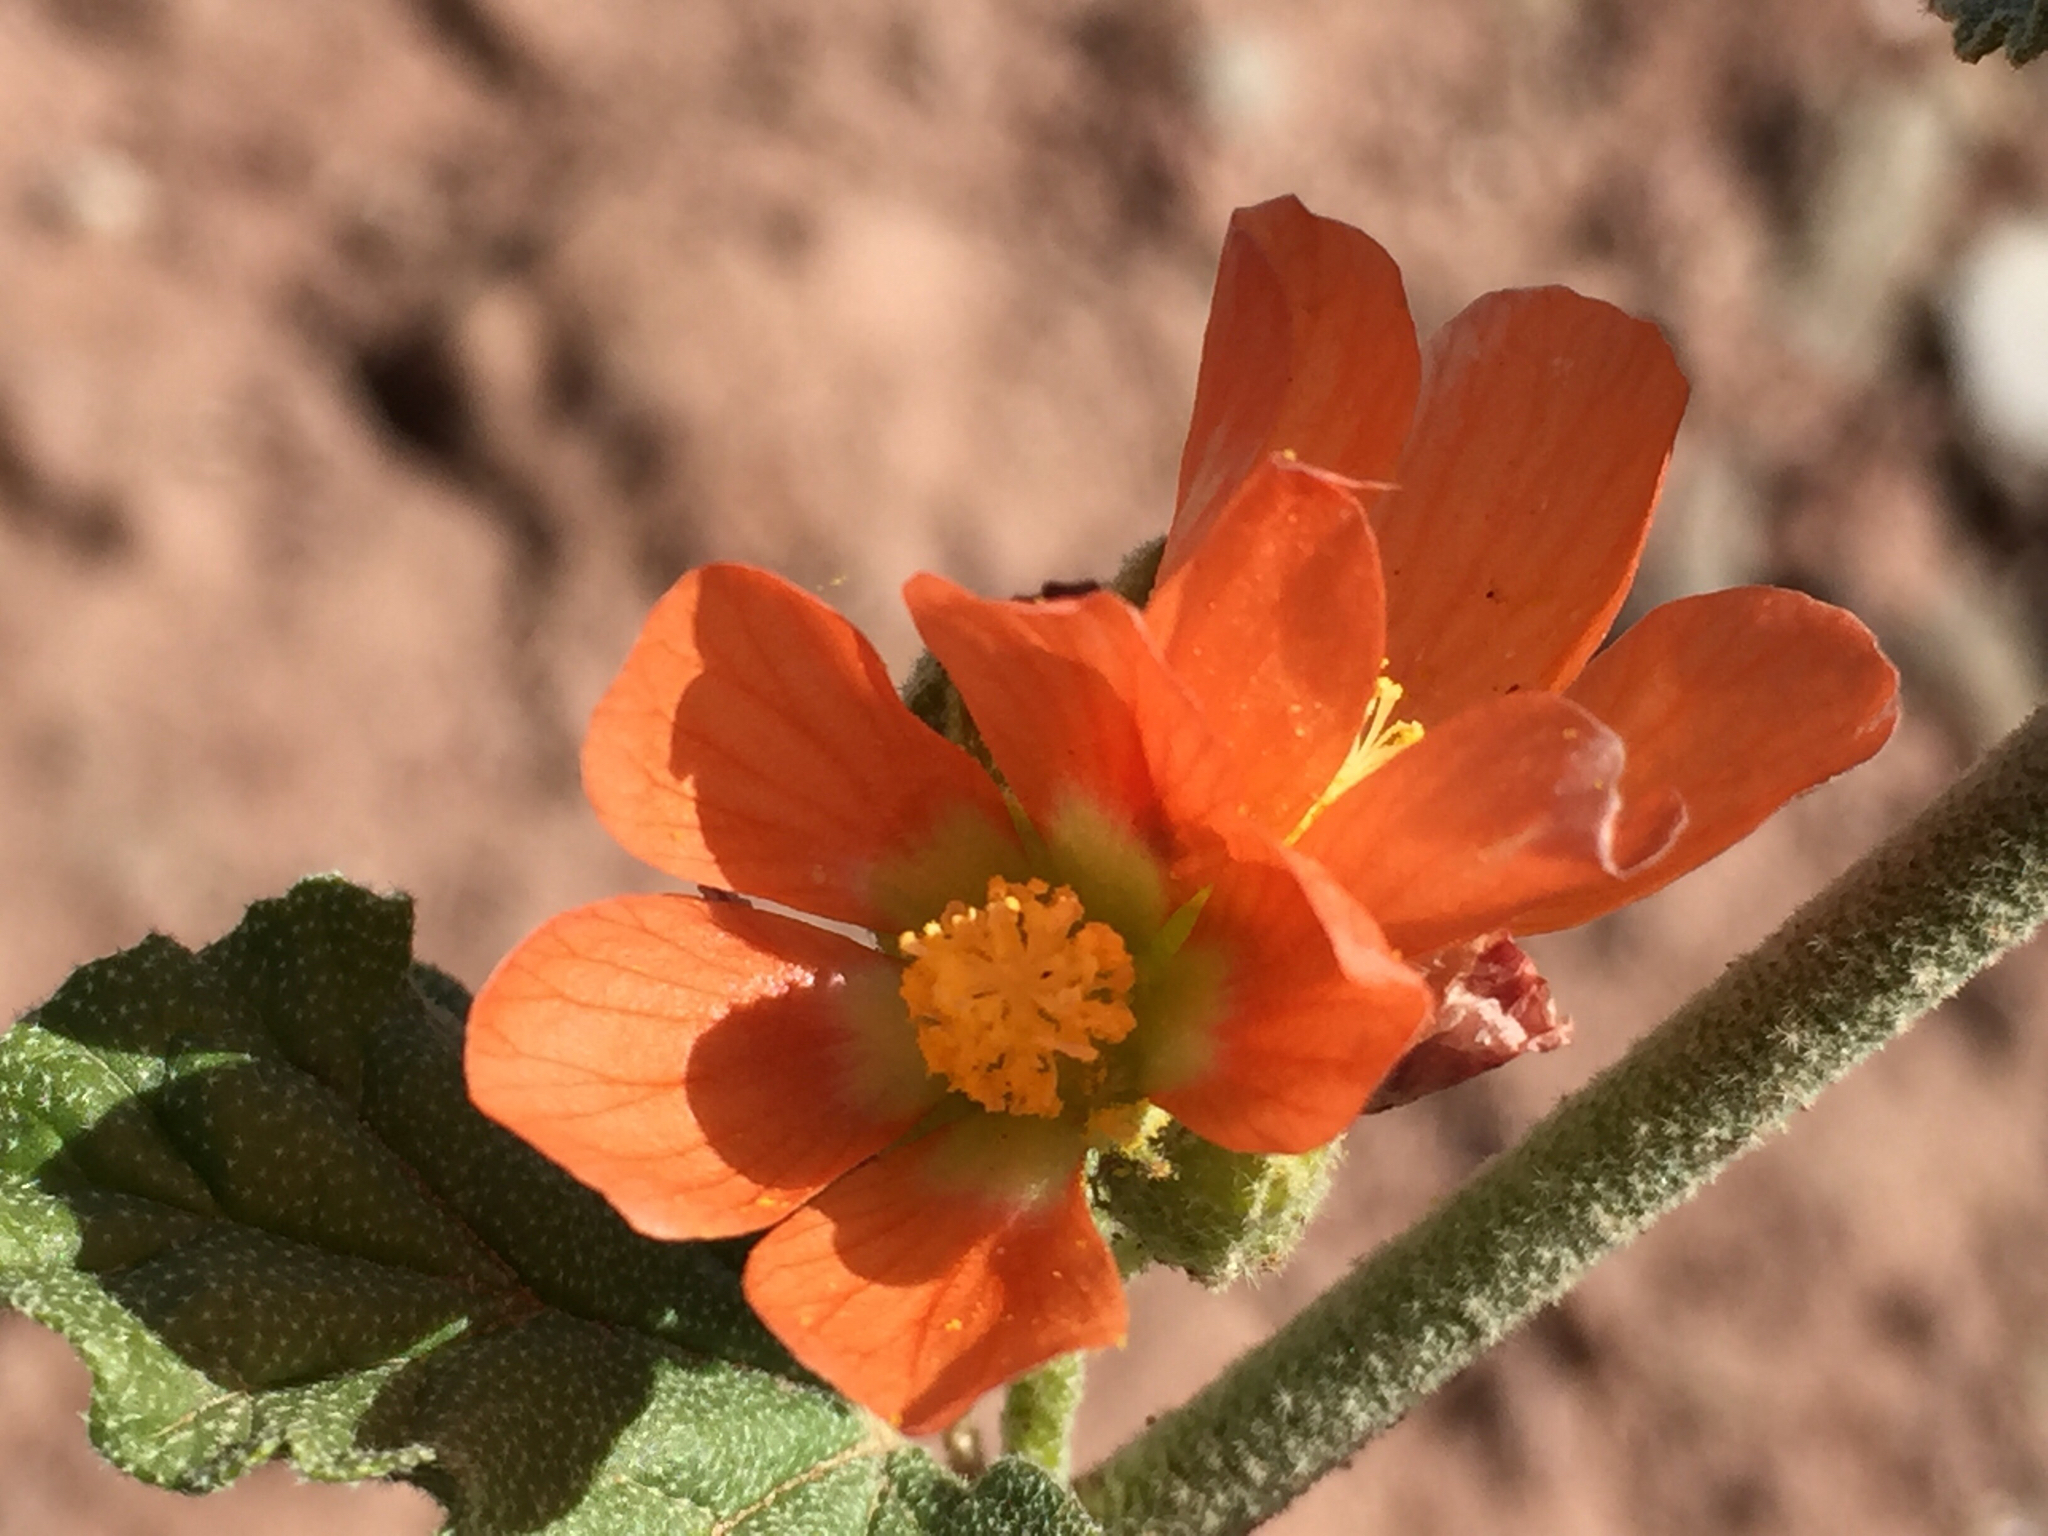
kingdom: Plantae
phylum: Tracheophyta
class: Magnoliopsida
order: Malvales
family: Malvaceae
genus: Sphaeralcea
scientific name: Sphaeralcea parvifolia
